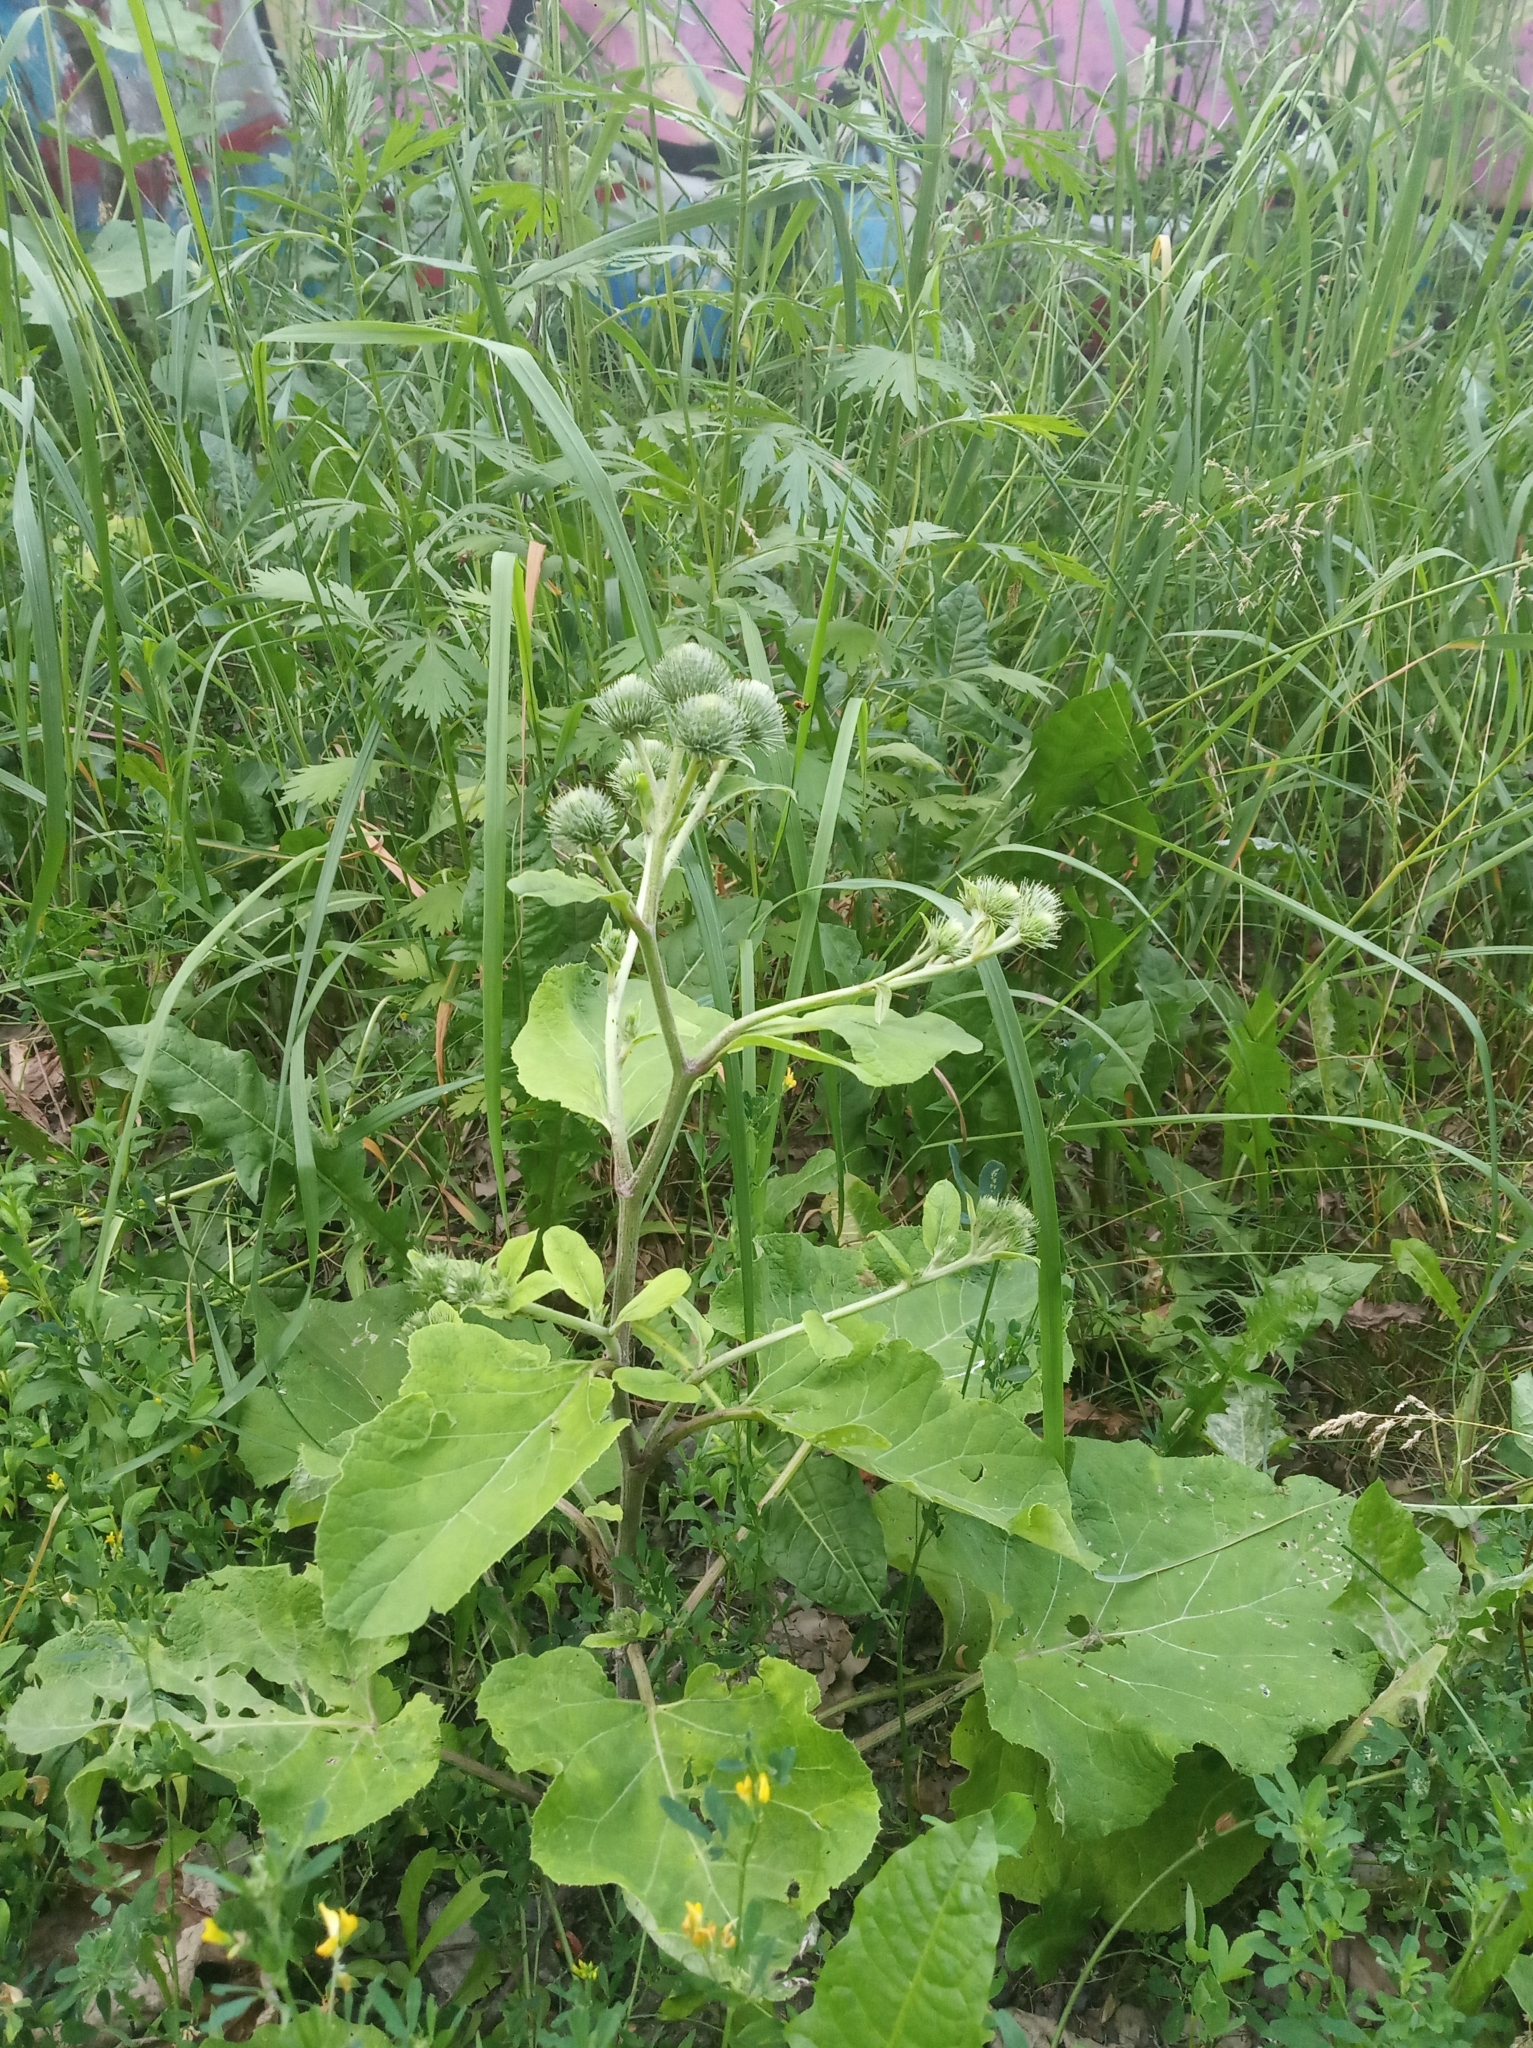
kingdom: Plantae
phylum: Tracheophyta
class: Magnoliopsida
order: Asterales
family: Asteraceae
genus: Arctium
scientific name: Arctium minus
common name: Lesser burdock
